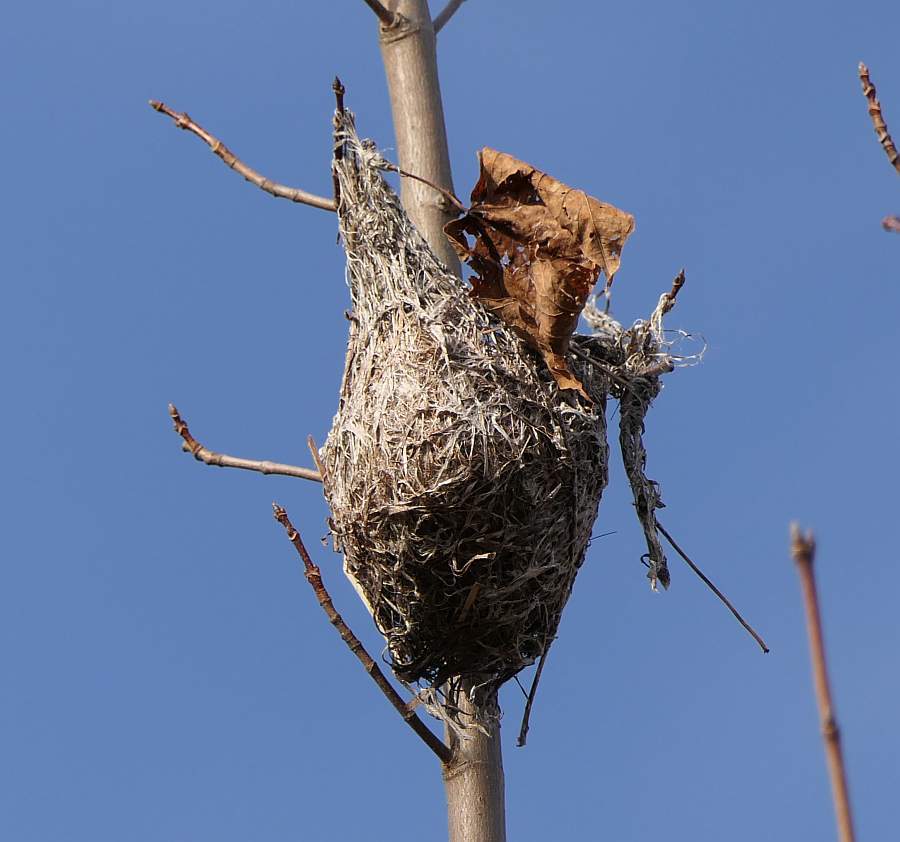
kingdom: Animalia
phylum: Chordata
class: Aves
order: Passeriformes
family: Icteridae
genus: Icterus
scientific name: Icterus galbula
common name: Baltimore oriole
